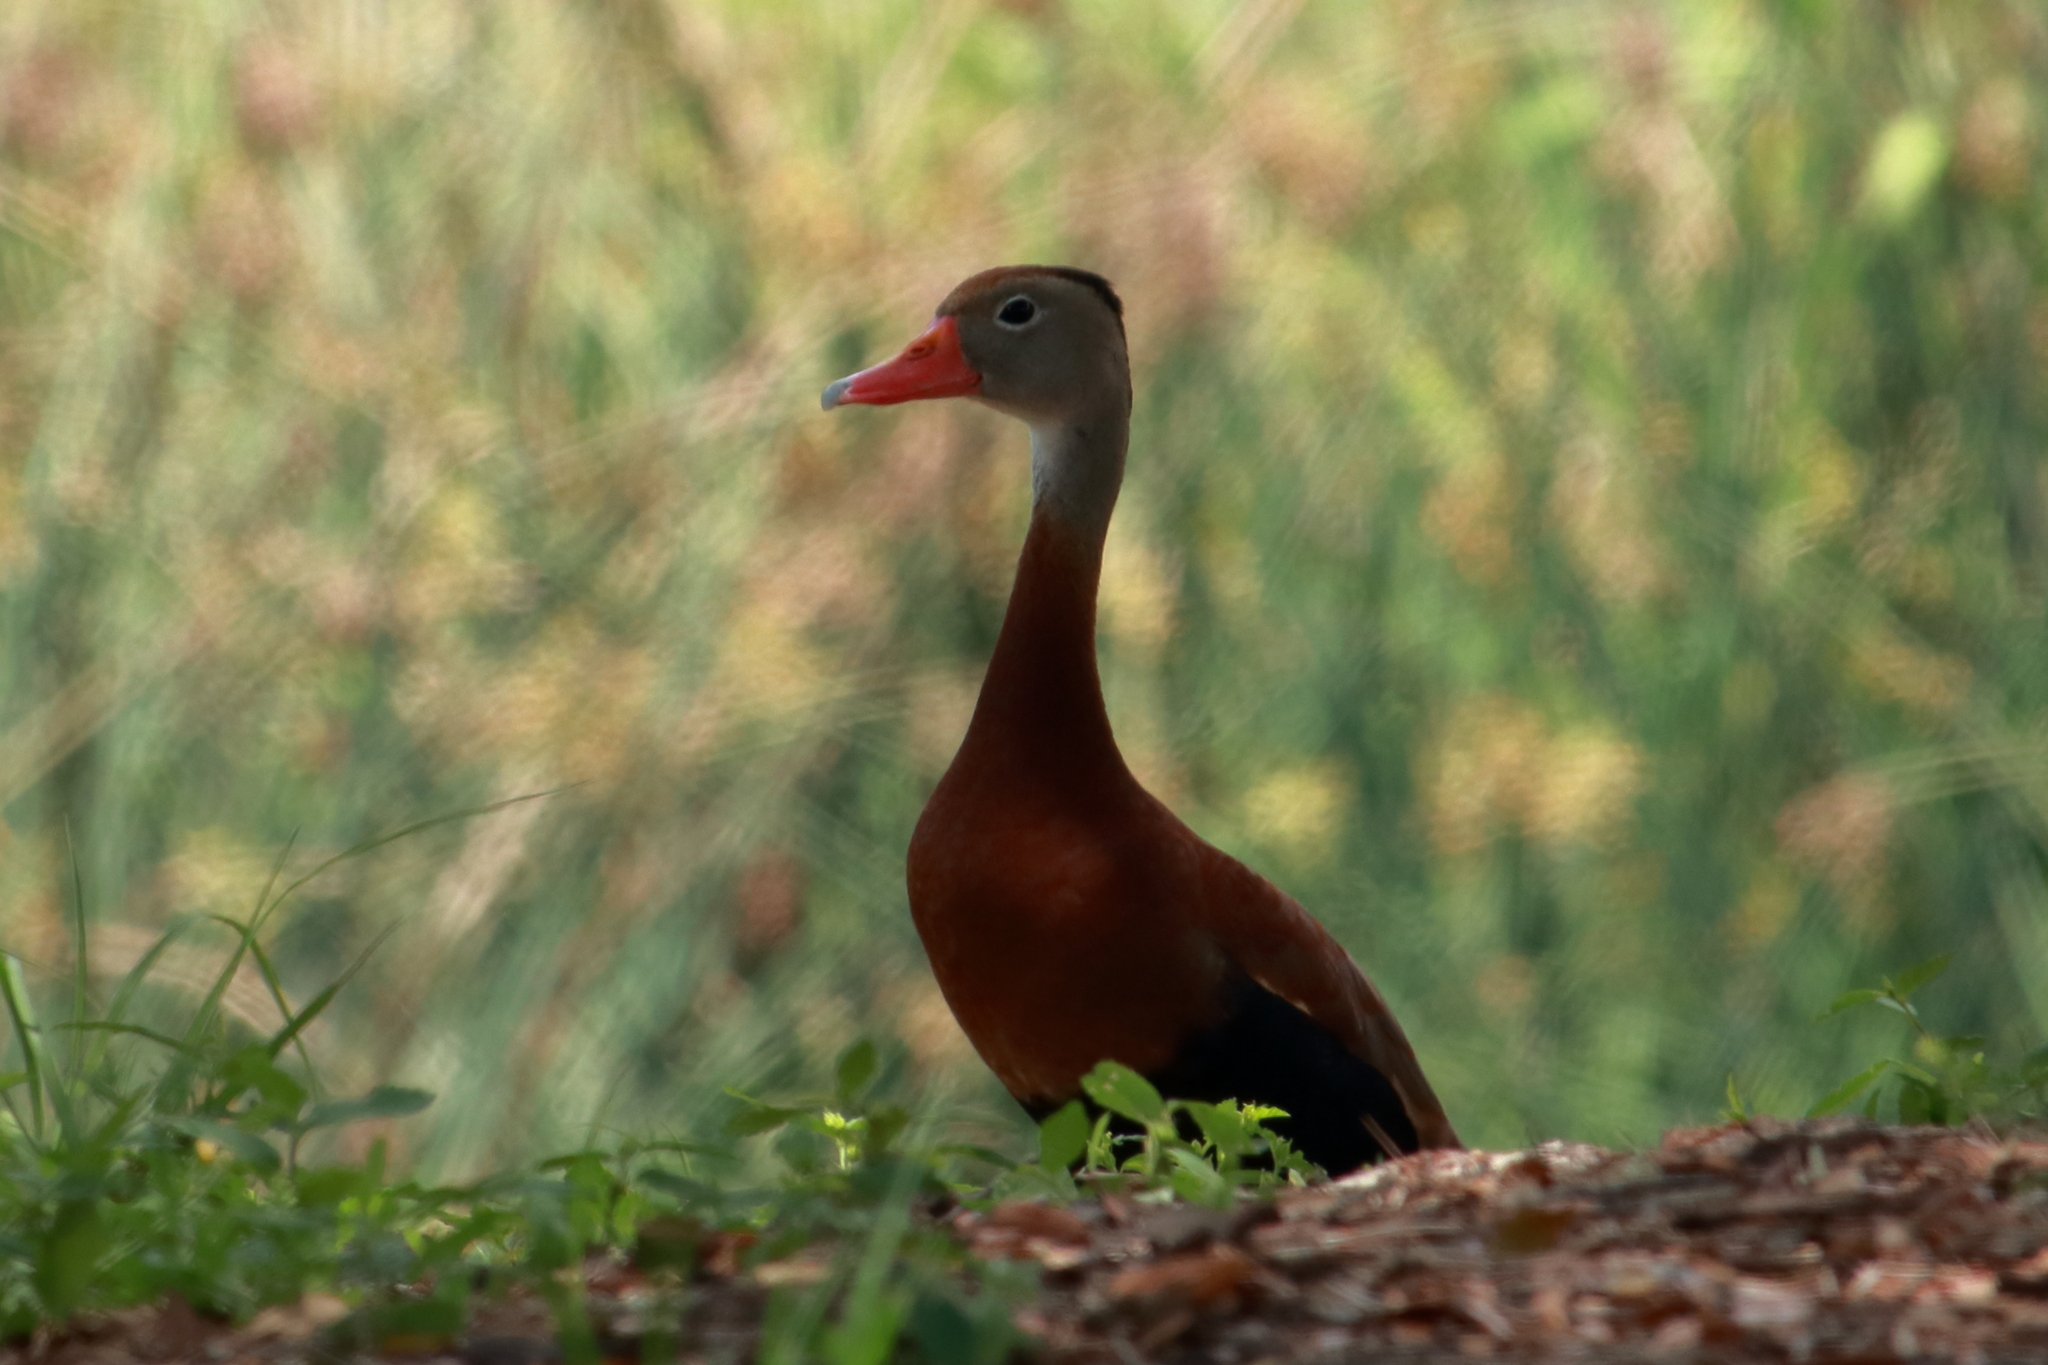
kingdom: Animalia
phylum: Chordata
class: Aves
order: Anseriformes
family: Anatidae
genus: Dendrocygna
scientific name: Dendrocygna autumnalis
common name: Black-bellied whistling duck
